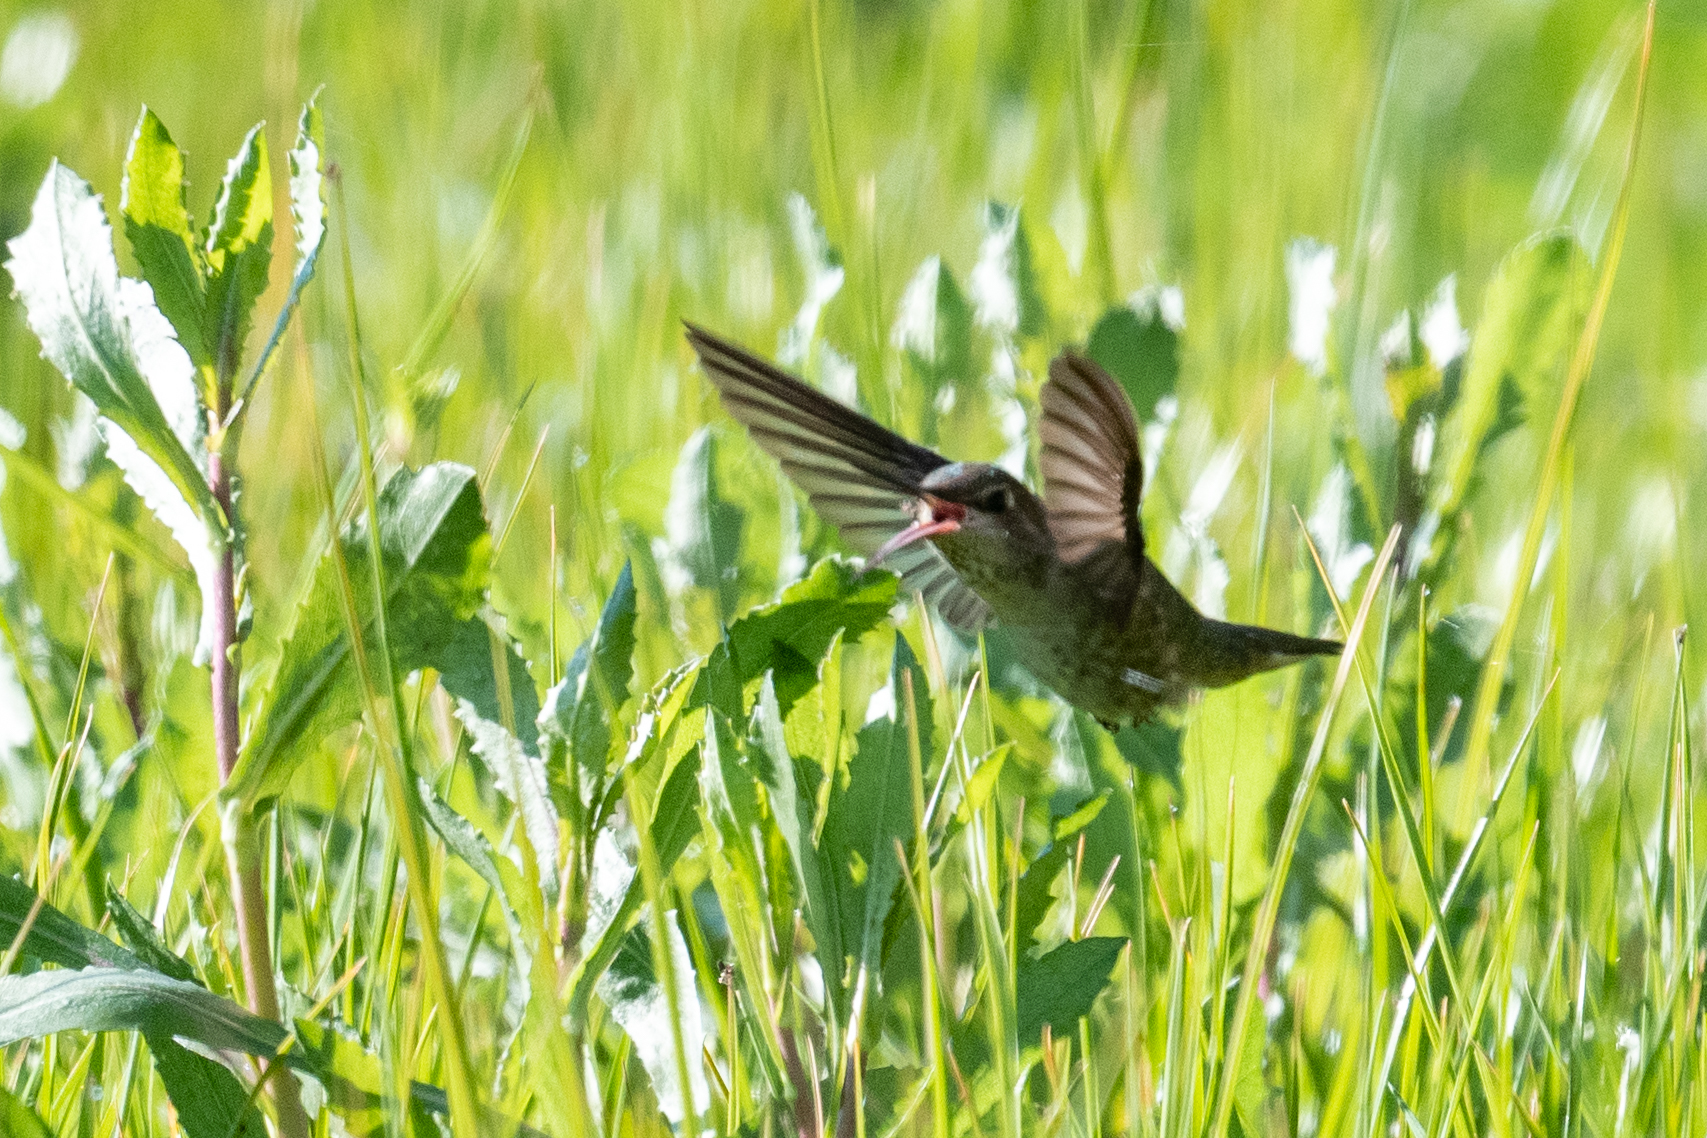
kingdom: Animalia
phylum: Chordata
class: Aves
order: Apodiformes
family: Trochilidae
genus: Calypte
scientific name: Calypte anna
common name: Anna's hummingbird
